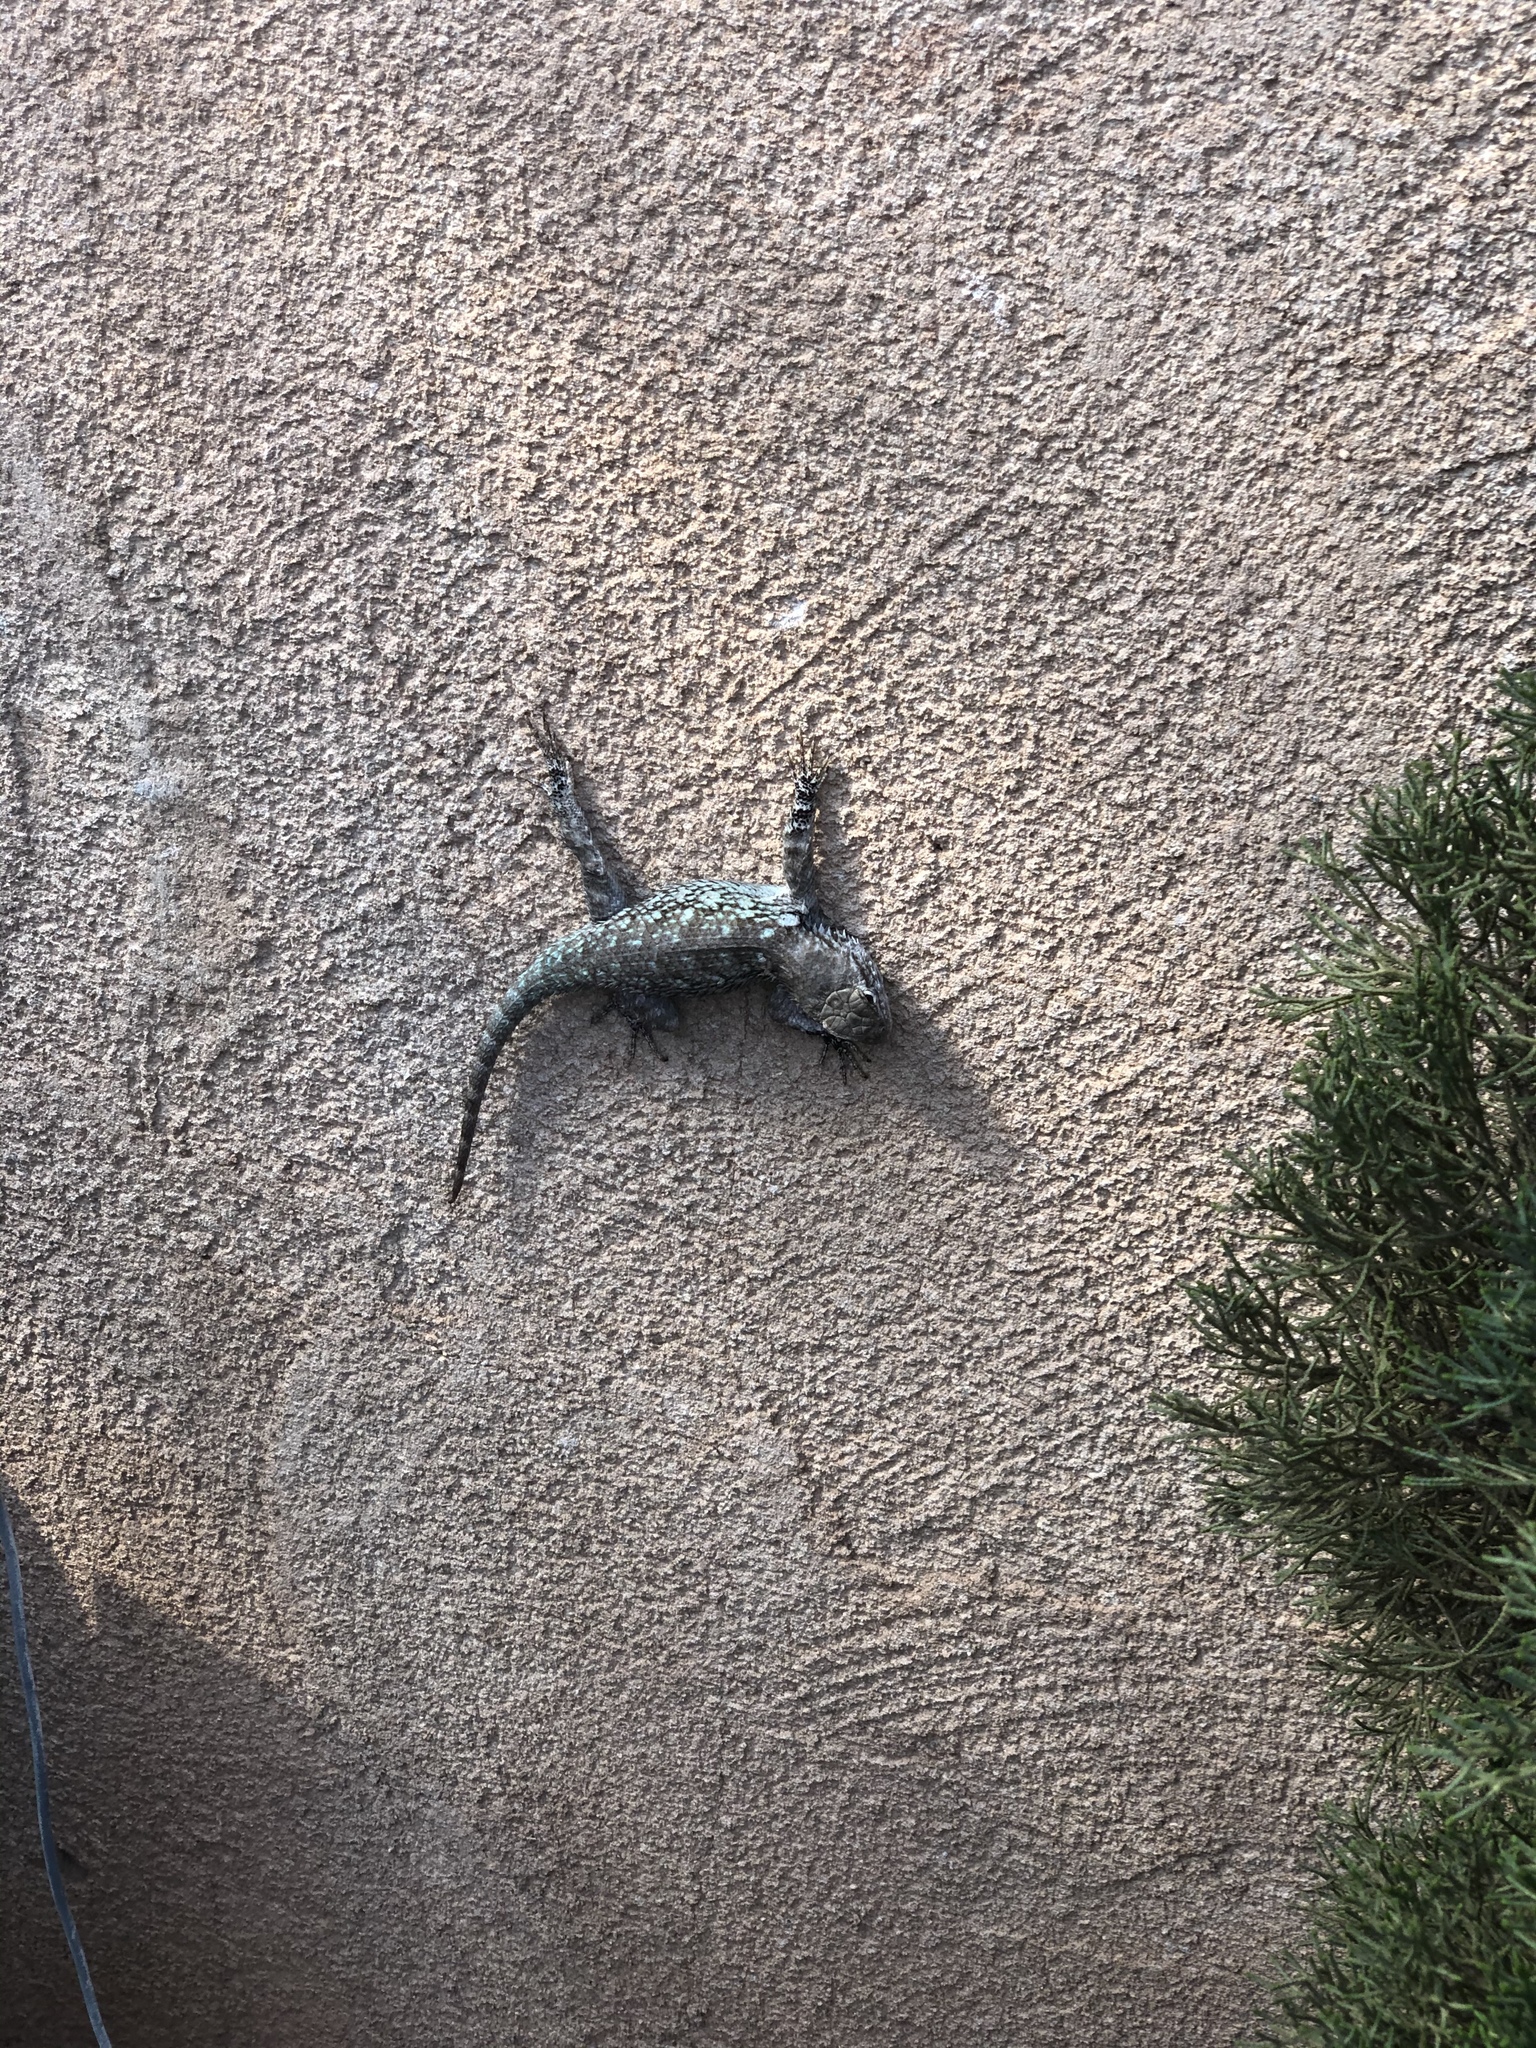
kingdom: Animalia
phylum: Chordata
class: Squamata
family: Phrynosomatidae
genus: Sceloporus
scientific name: Sceloporus clarkii
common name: Clark's spiny lizard
